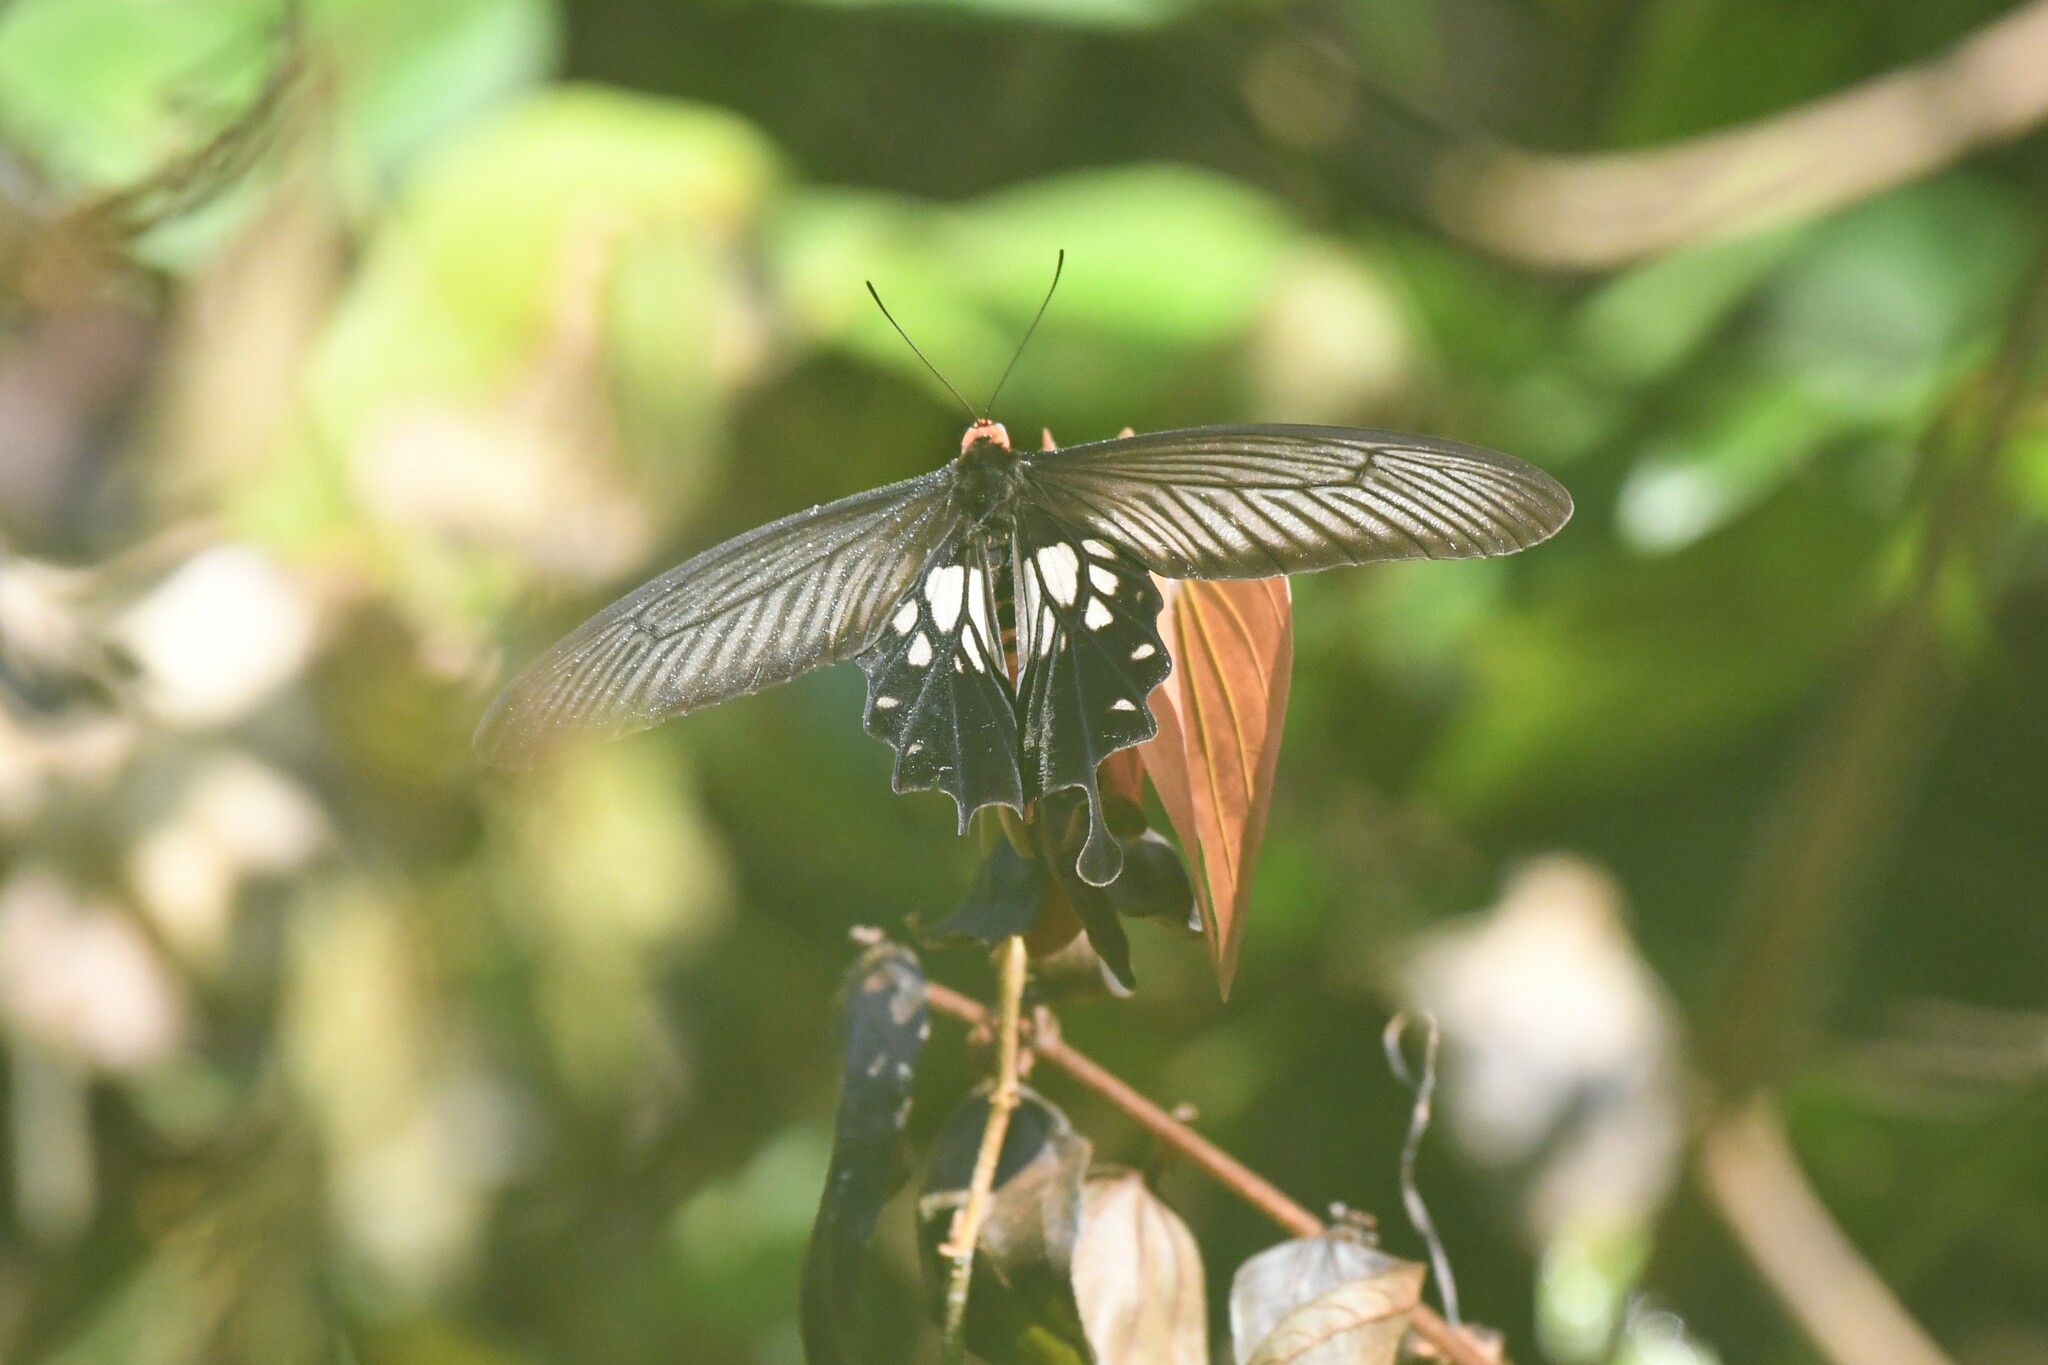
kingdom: Animalia
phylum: Arthropoda
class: Insecta
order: Lepidoptera
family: Papilionidae
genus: Losaria
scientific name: Losaria
